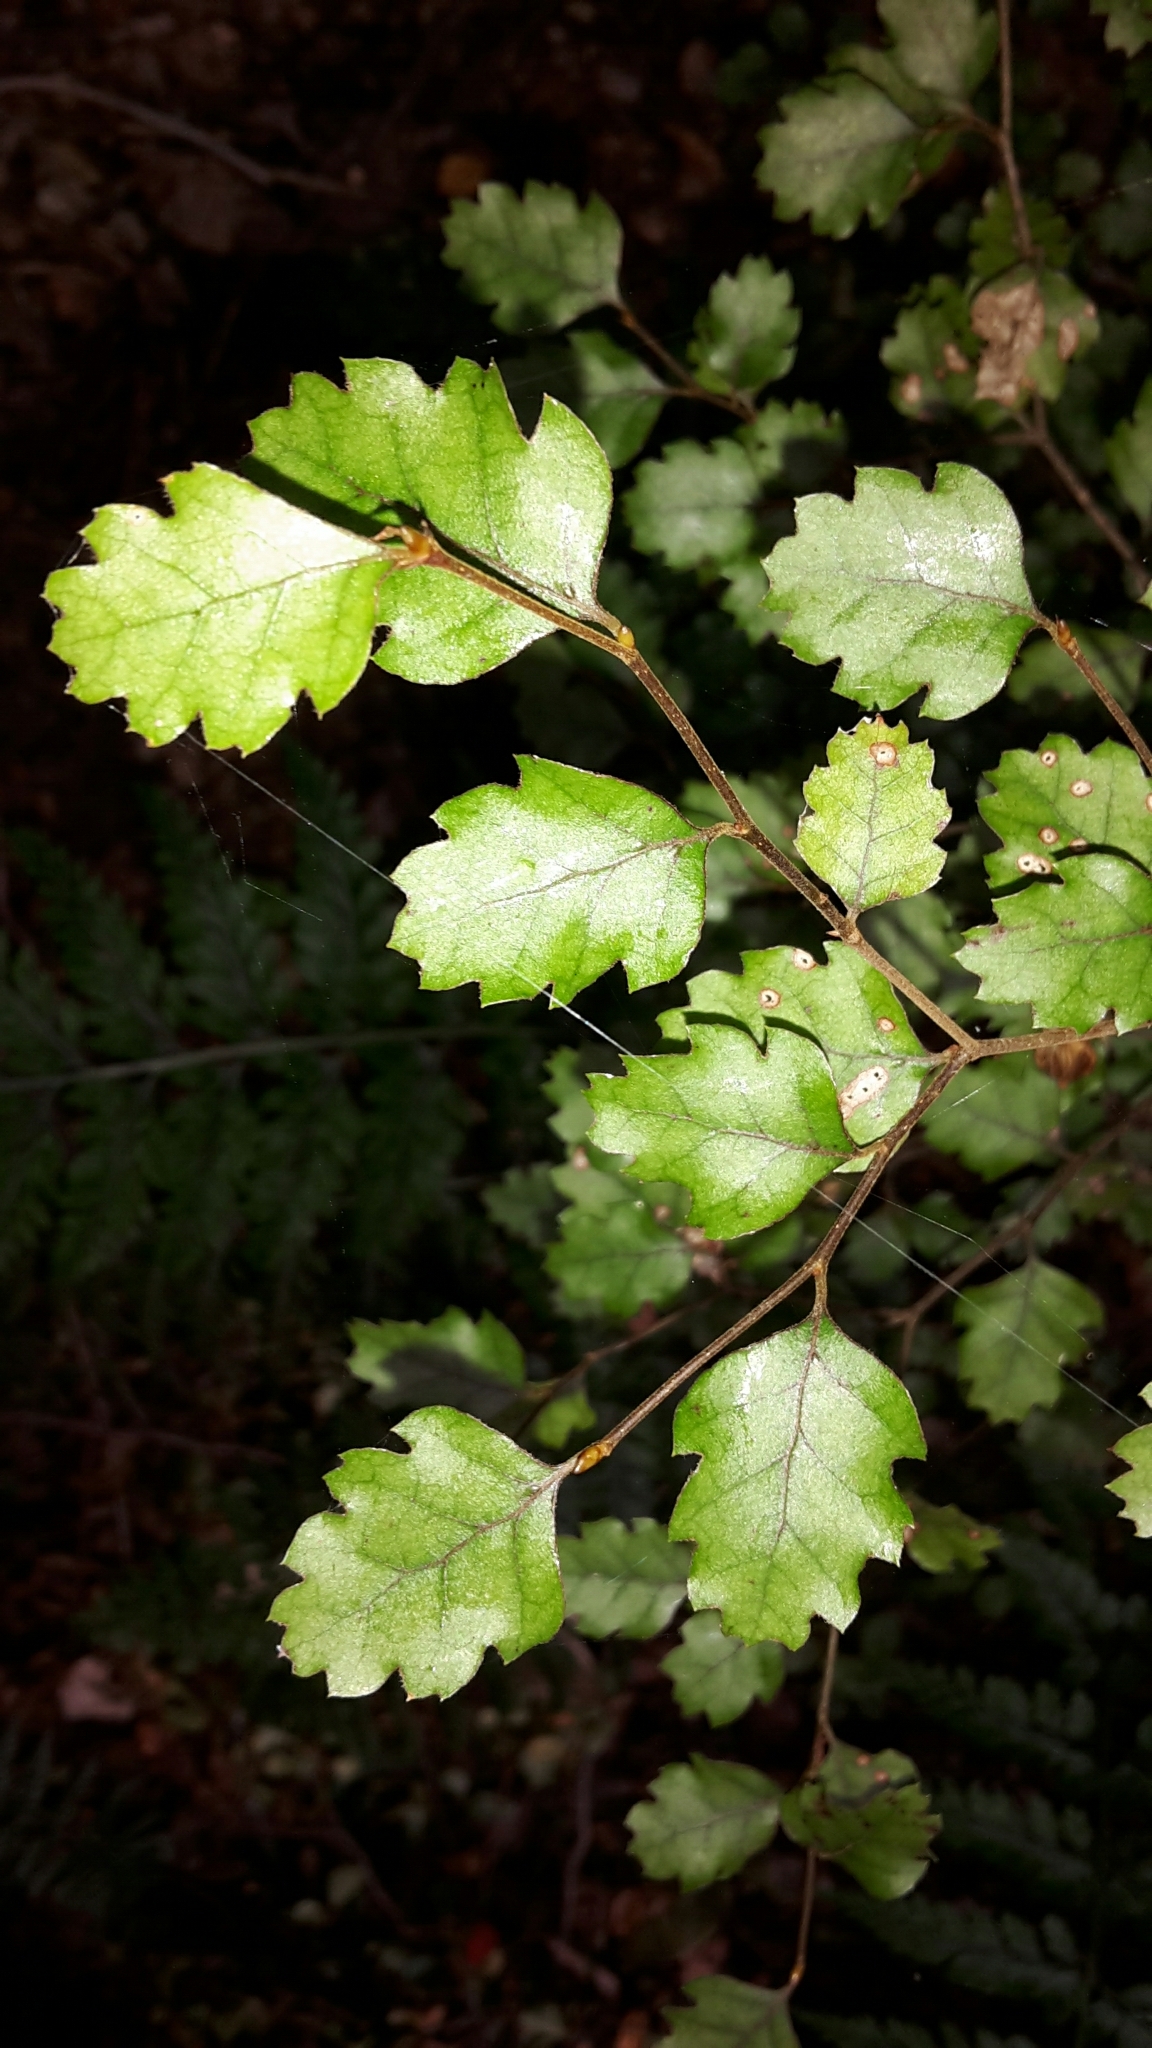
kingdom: Plantae
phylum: Tracheophyta
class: Magnoliopsida
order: Fagales
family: Nothofagaceae
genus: Nothofagus
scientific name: Nothofagus fusca
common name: Red beech
